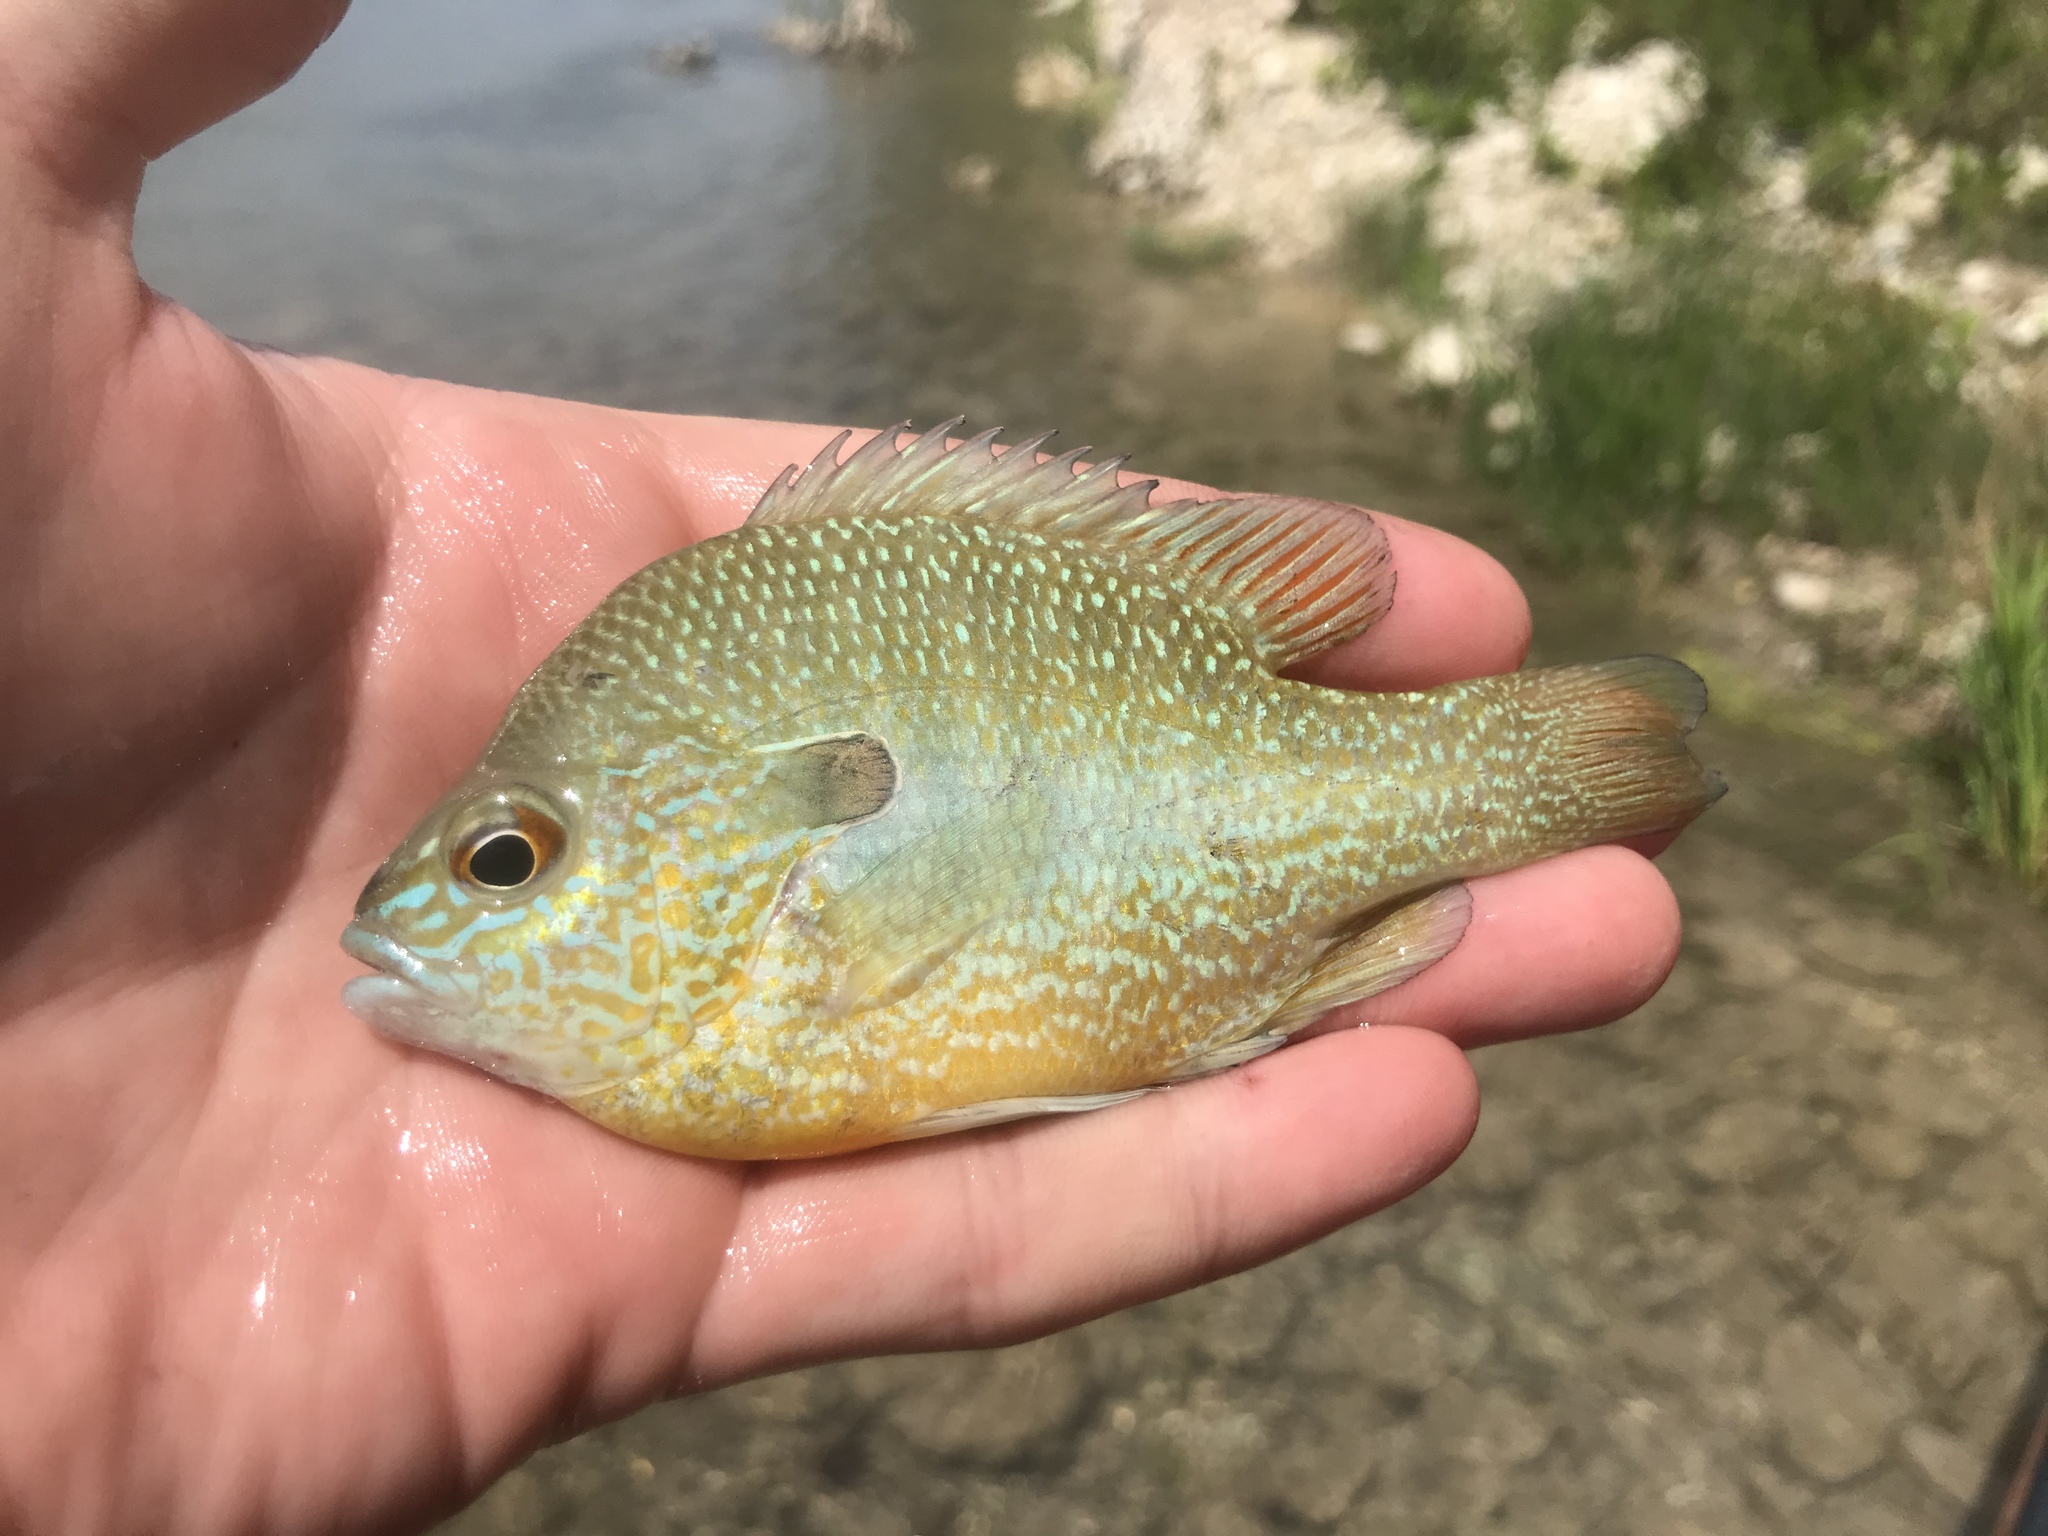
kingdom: Animalia
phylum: Chordata
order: Perciformes
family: Centrarchidae
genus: Lepomis
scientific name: Lepomis megalotis
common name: Longear sunfish
